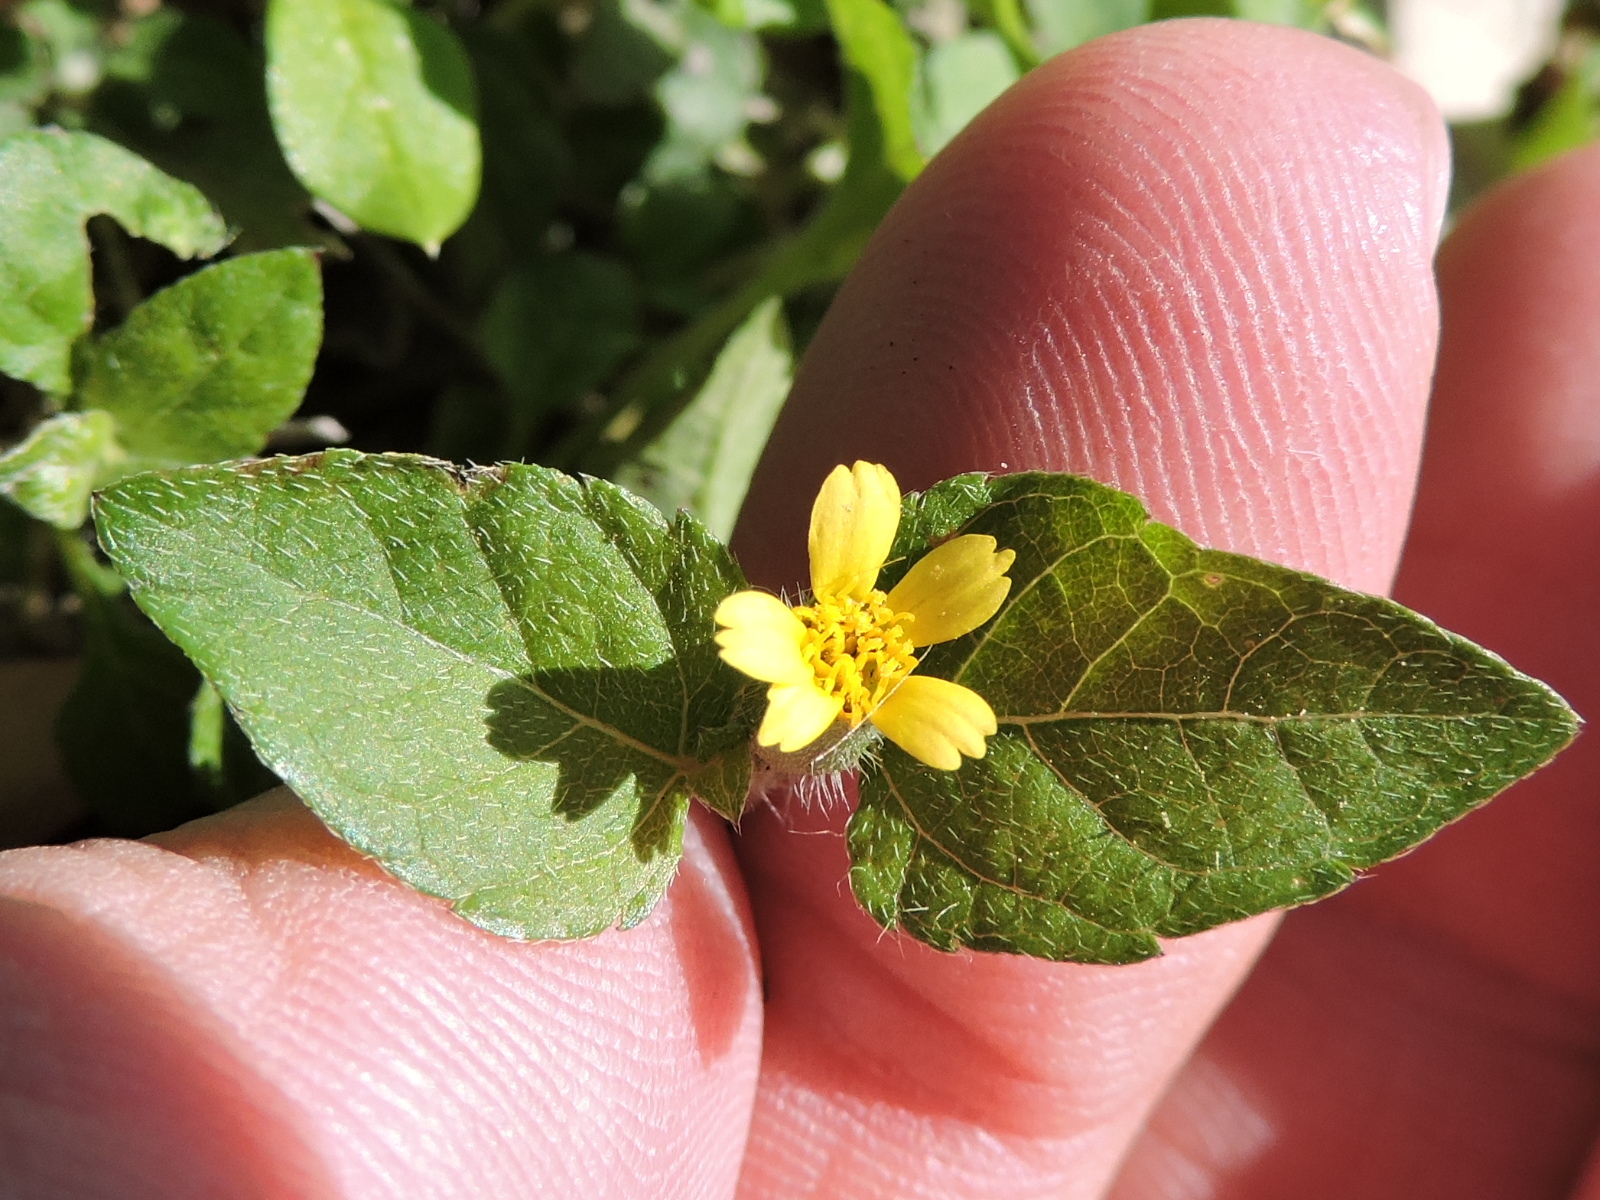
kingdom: Plantae
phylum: Tracheophyta
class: Magnoliopsida
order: Asterales
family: Asteraceae
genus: Calyptocarpus
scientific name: Calyptocarpus vialis
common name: Straggler daisy
